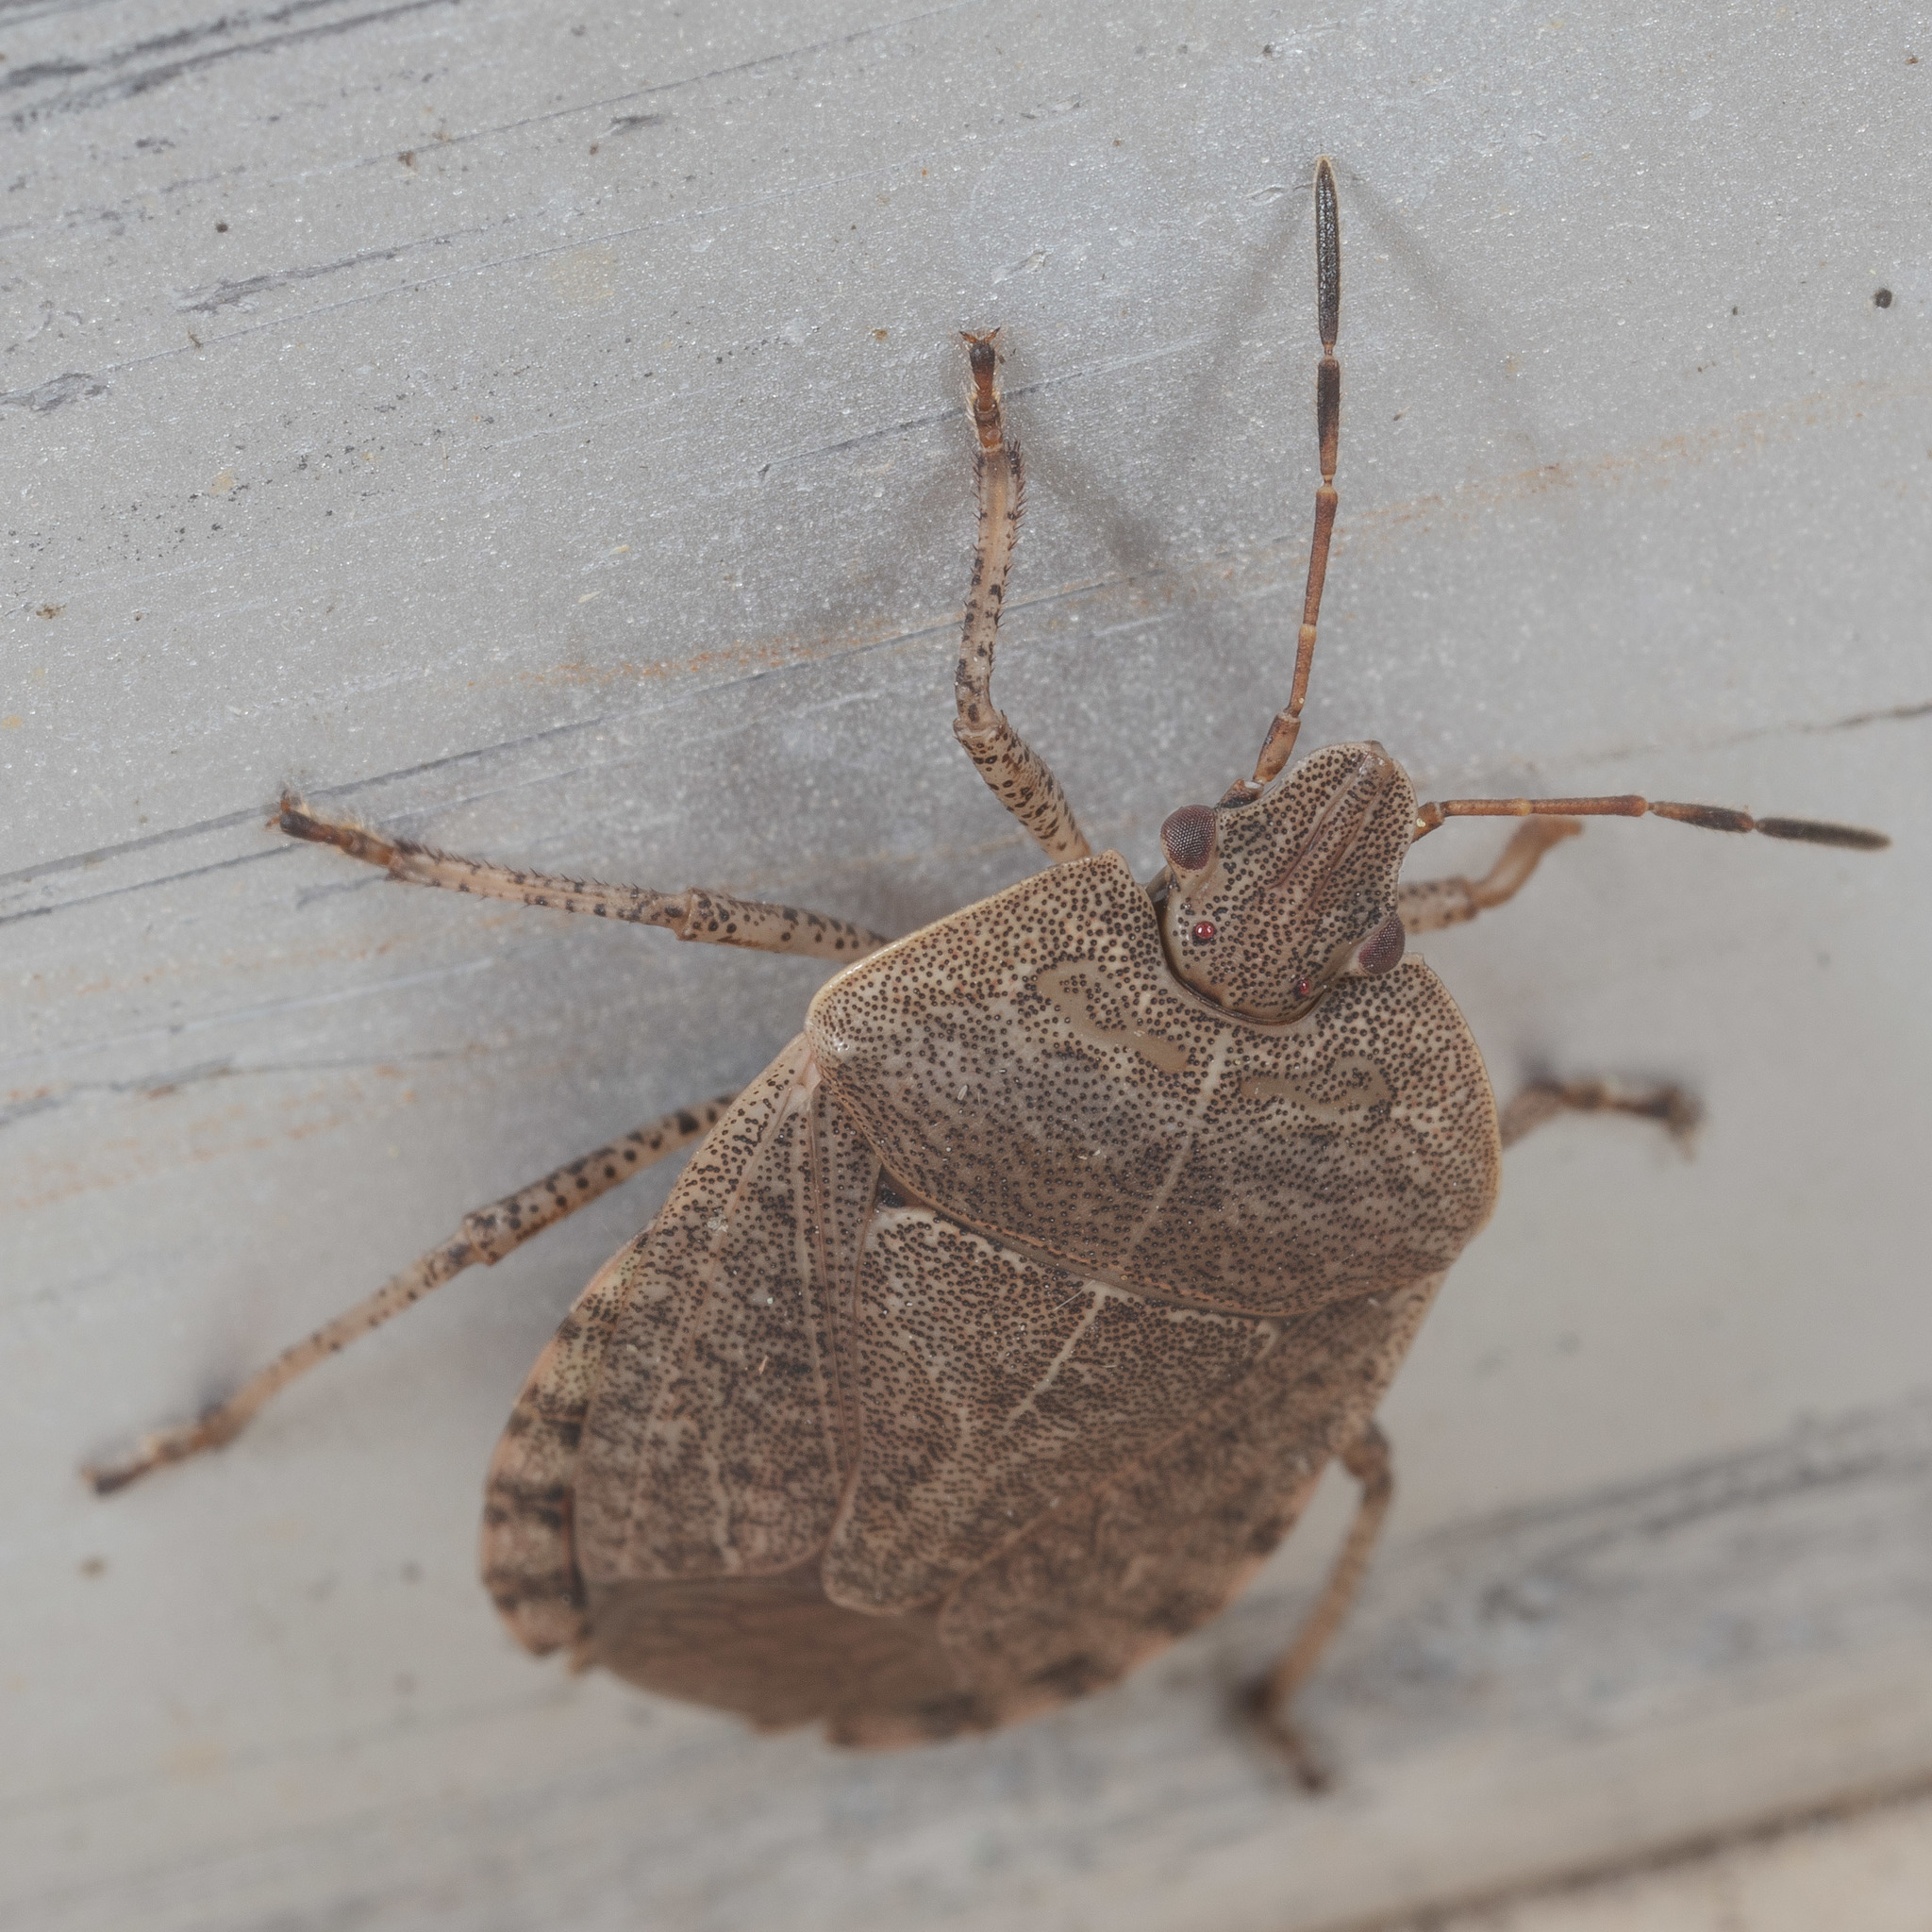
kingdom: Animalia
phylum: Arthropoda
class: Insecta
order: Hemiptera
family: Pentatomidae
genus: Menecles
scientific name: Menecles insertus
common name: Elf shoe stink bug
